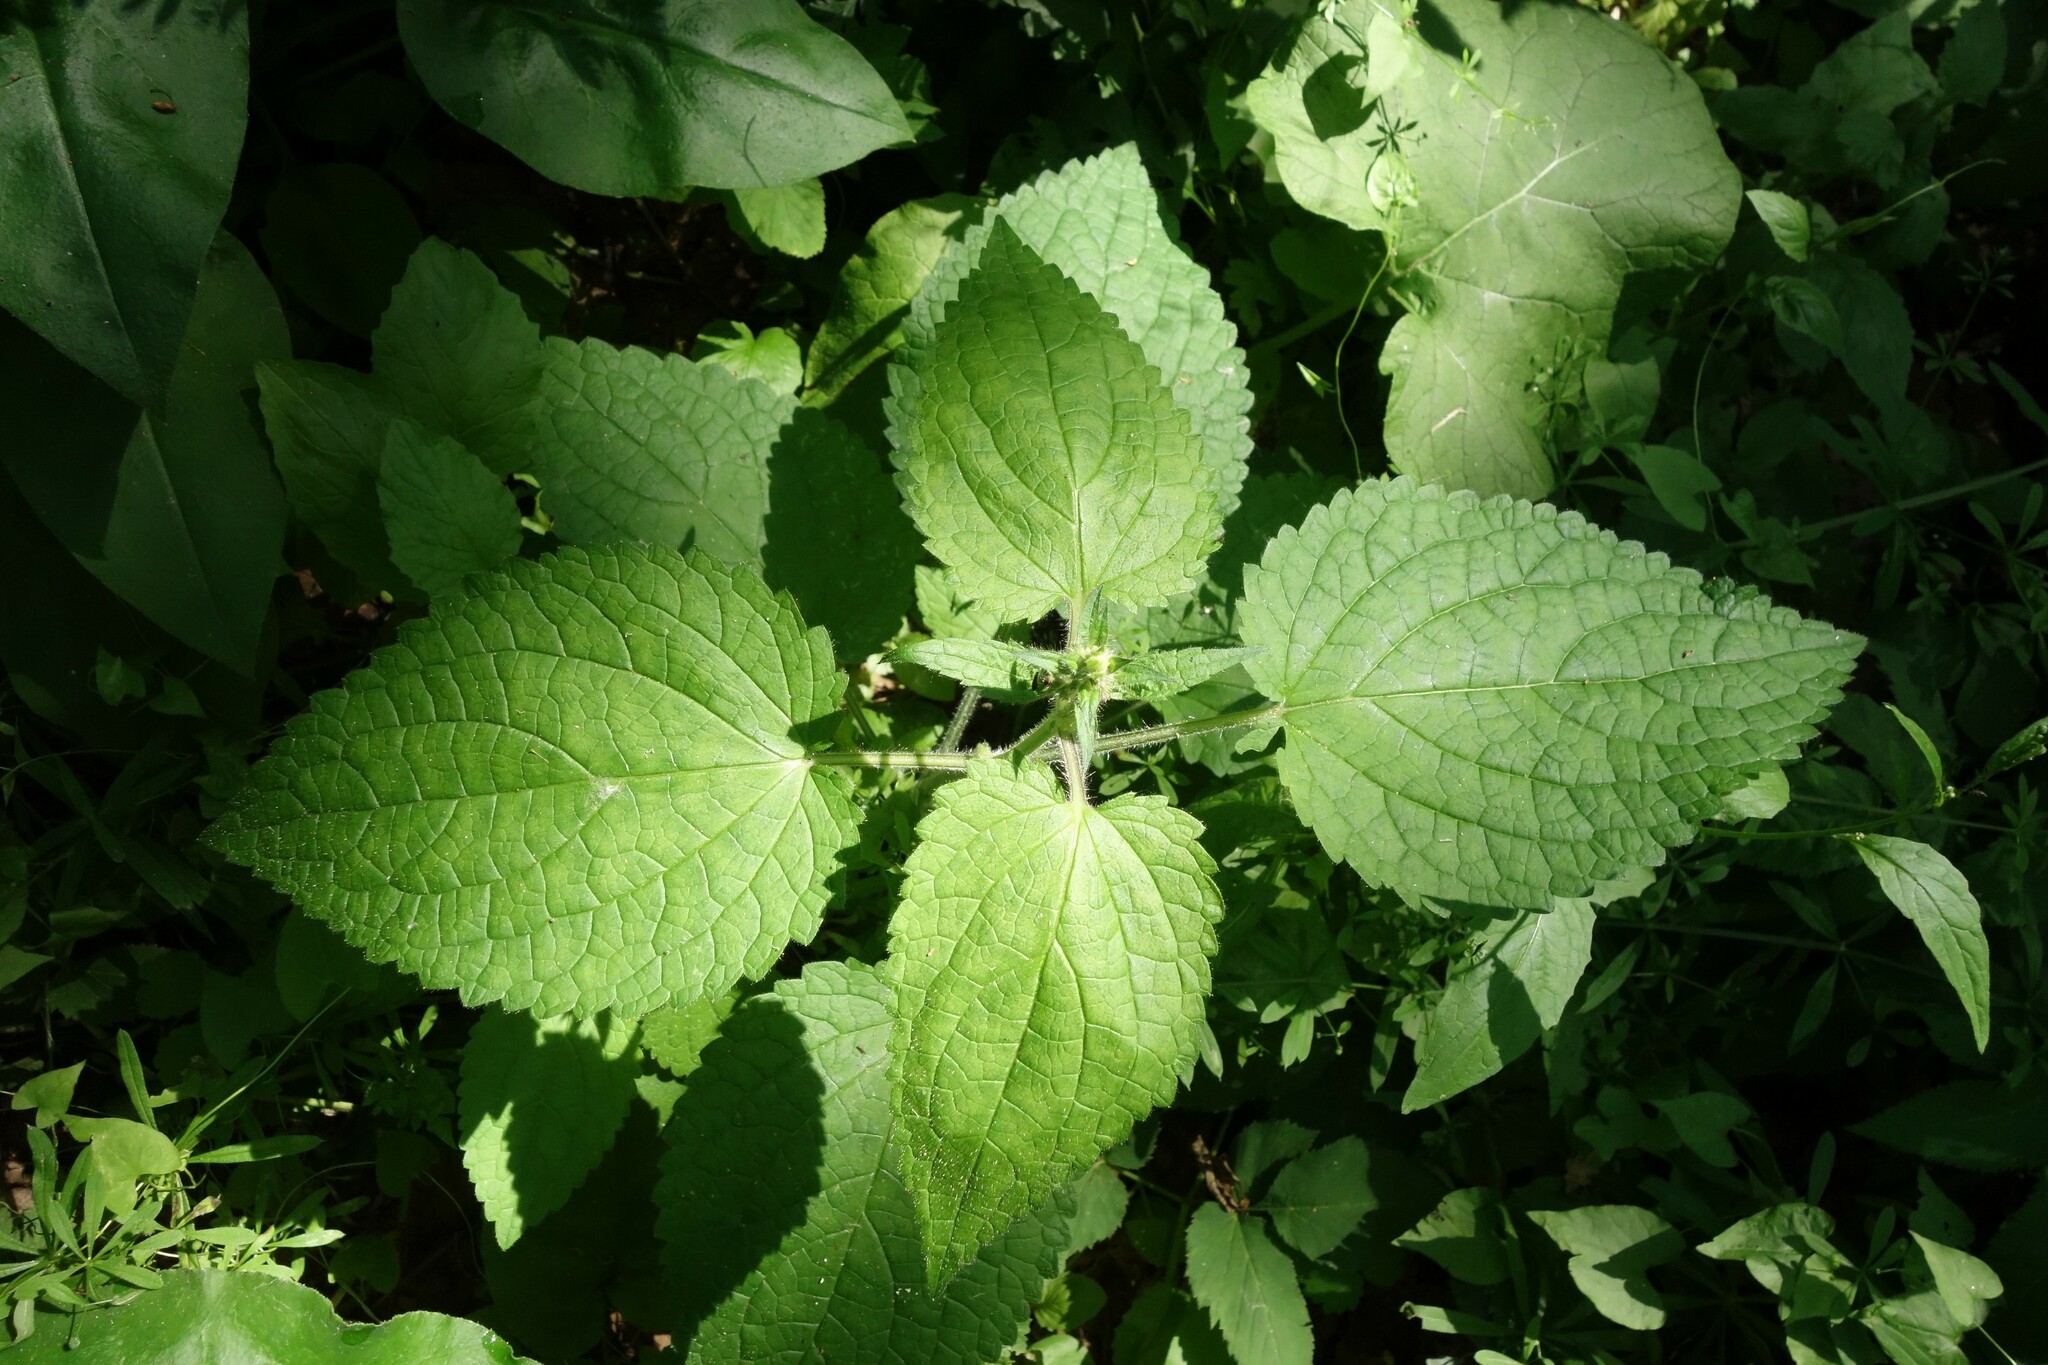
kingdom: Plantae
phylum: Tracheophyta
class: Magnoliopsida
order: Lamiales
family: Lamiaceae
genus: Stachys
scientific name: Stachys sylvatica
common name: Hedge woundwort
